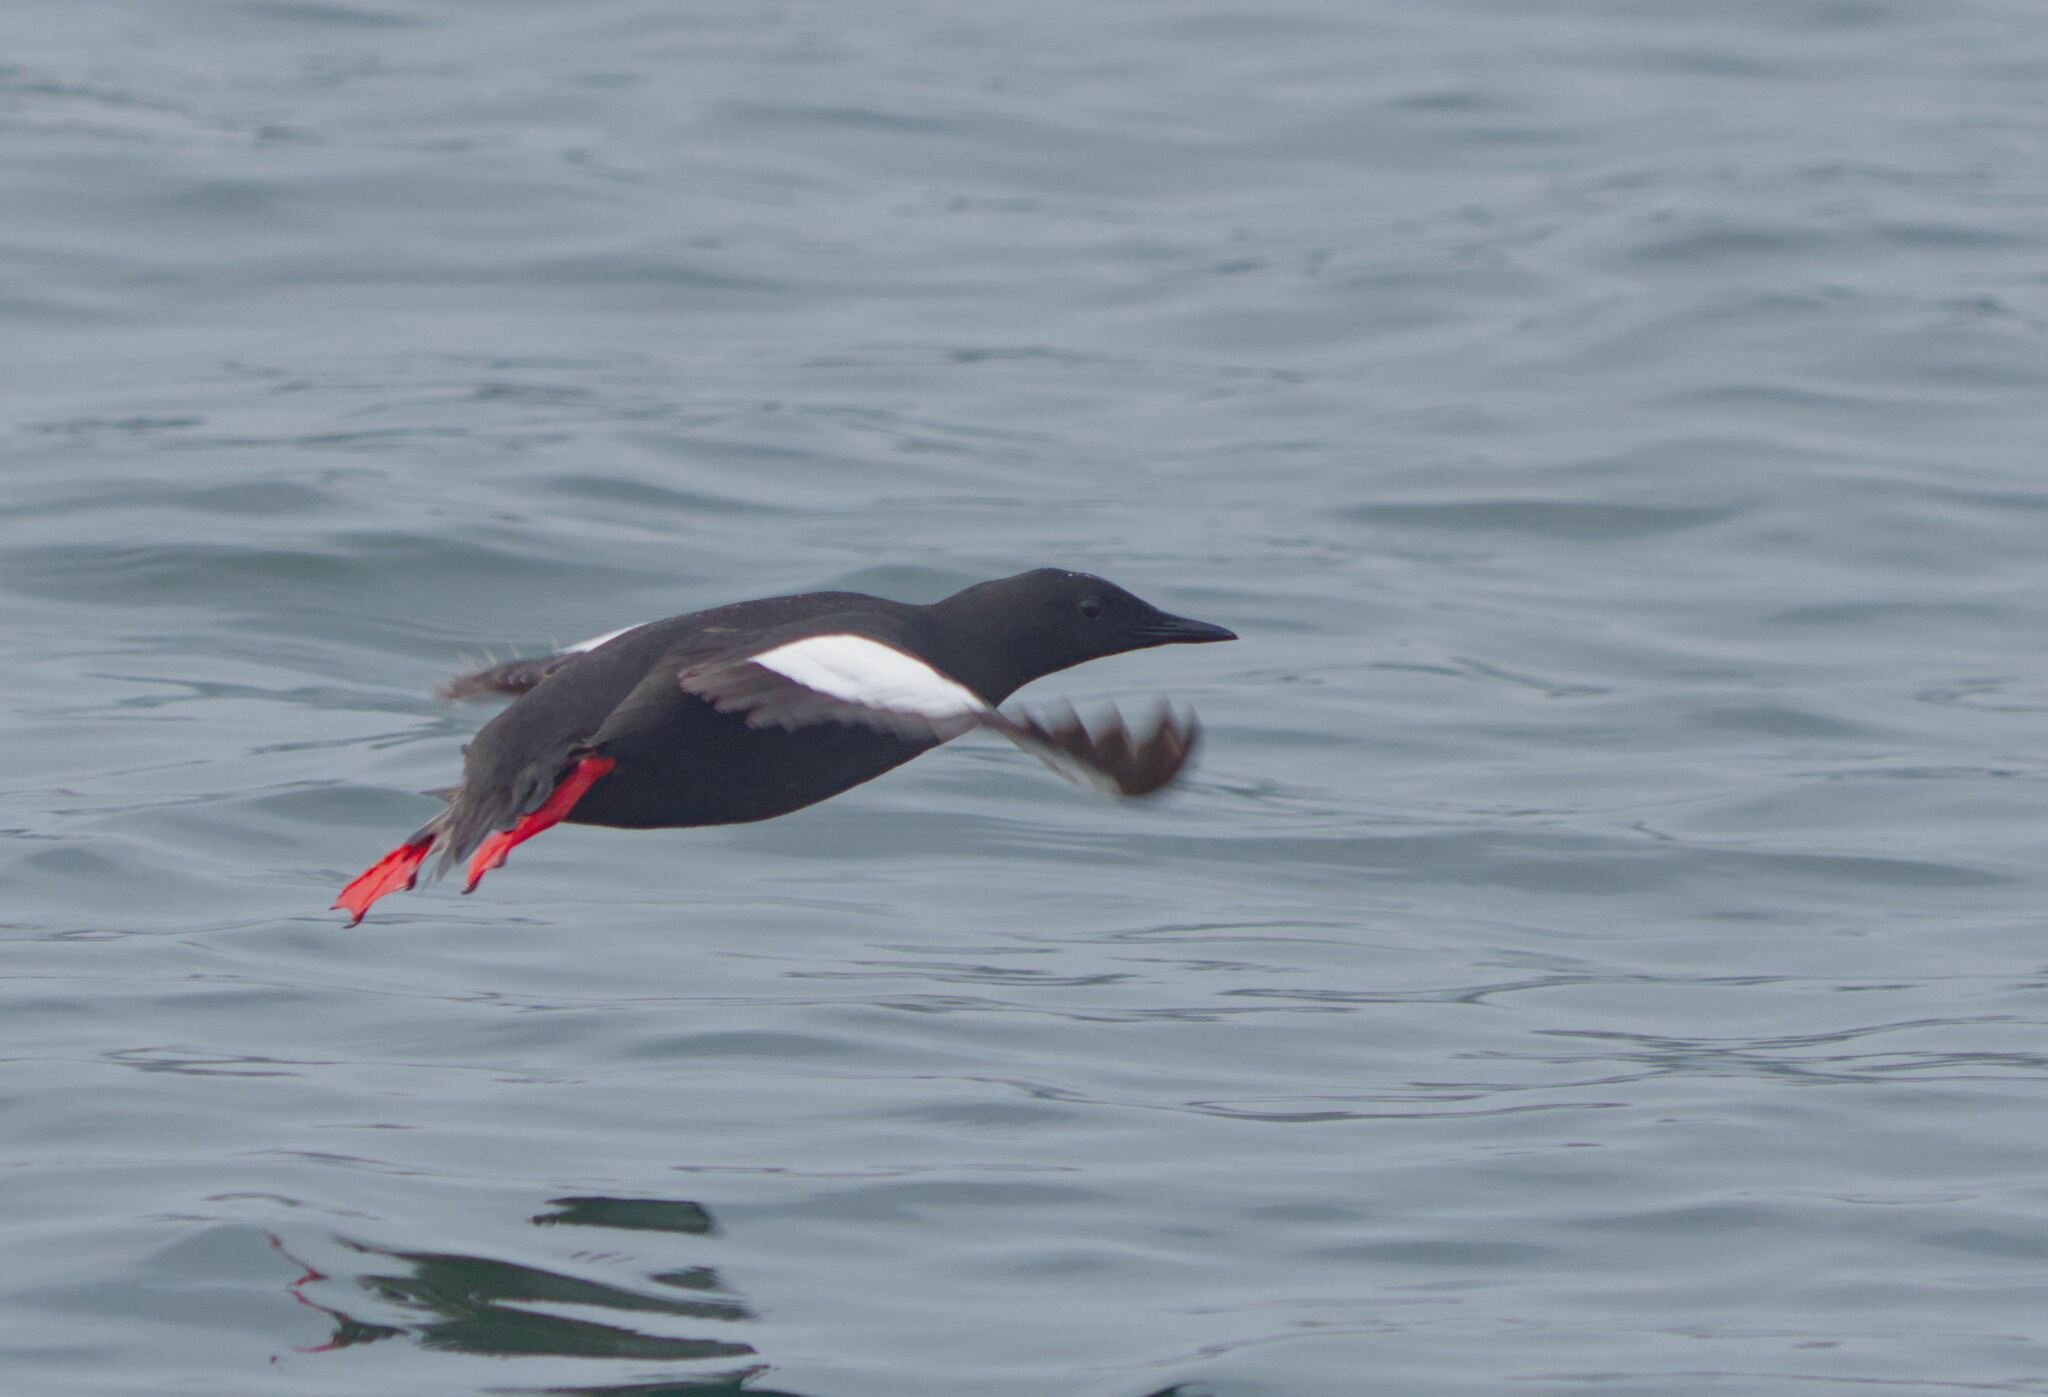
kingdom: Animalia
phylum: Chordata
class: Aves
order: Charadriiformes
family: Alcidae
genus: Cepphus
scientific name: Cepphus grylle
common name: Black guillemot
